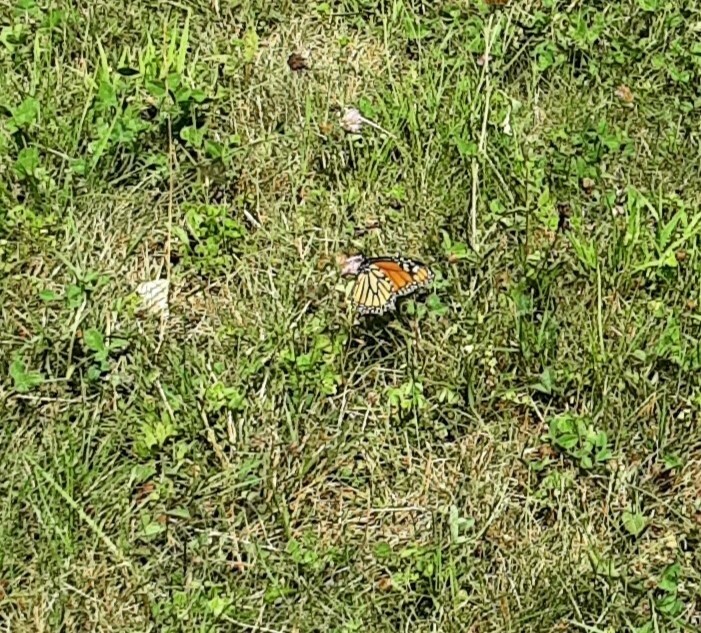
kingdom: Animalia
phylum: Arthropoda
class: Insecta
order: Lepidoptera
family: Nymphalidae
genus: Danaus
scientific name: Danaus plexippus
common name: Monarch
